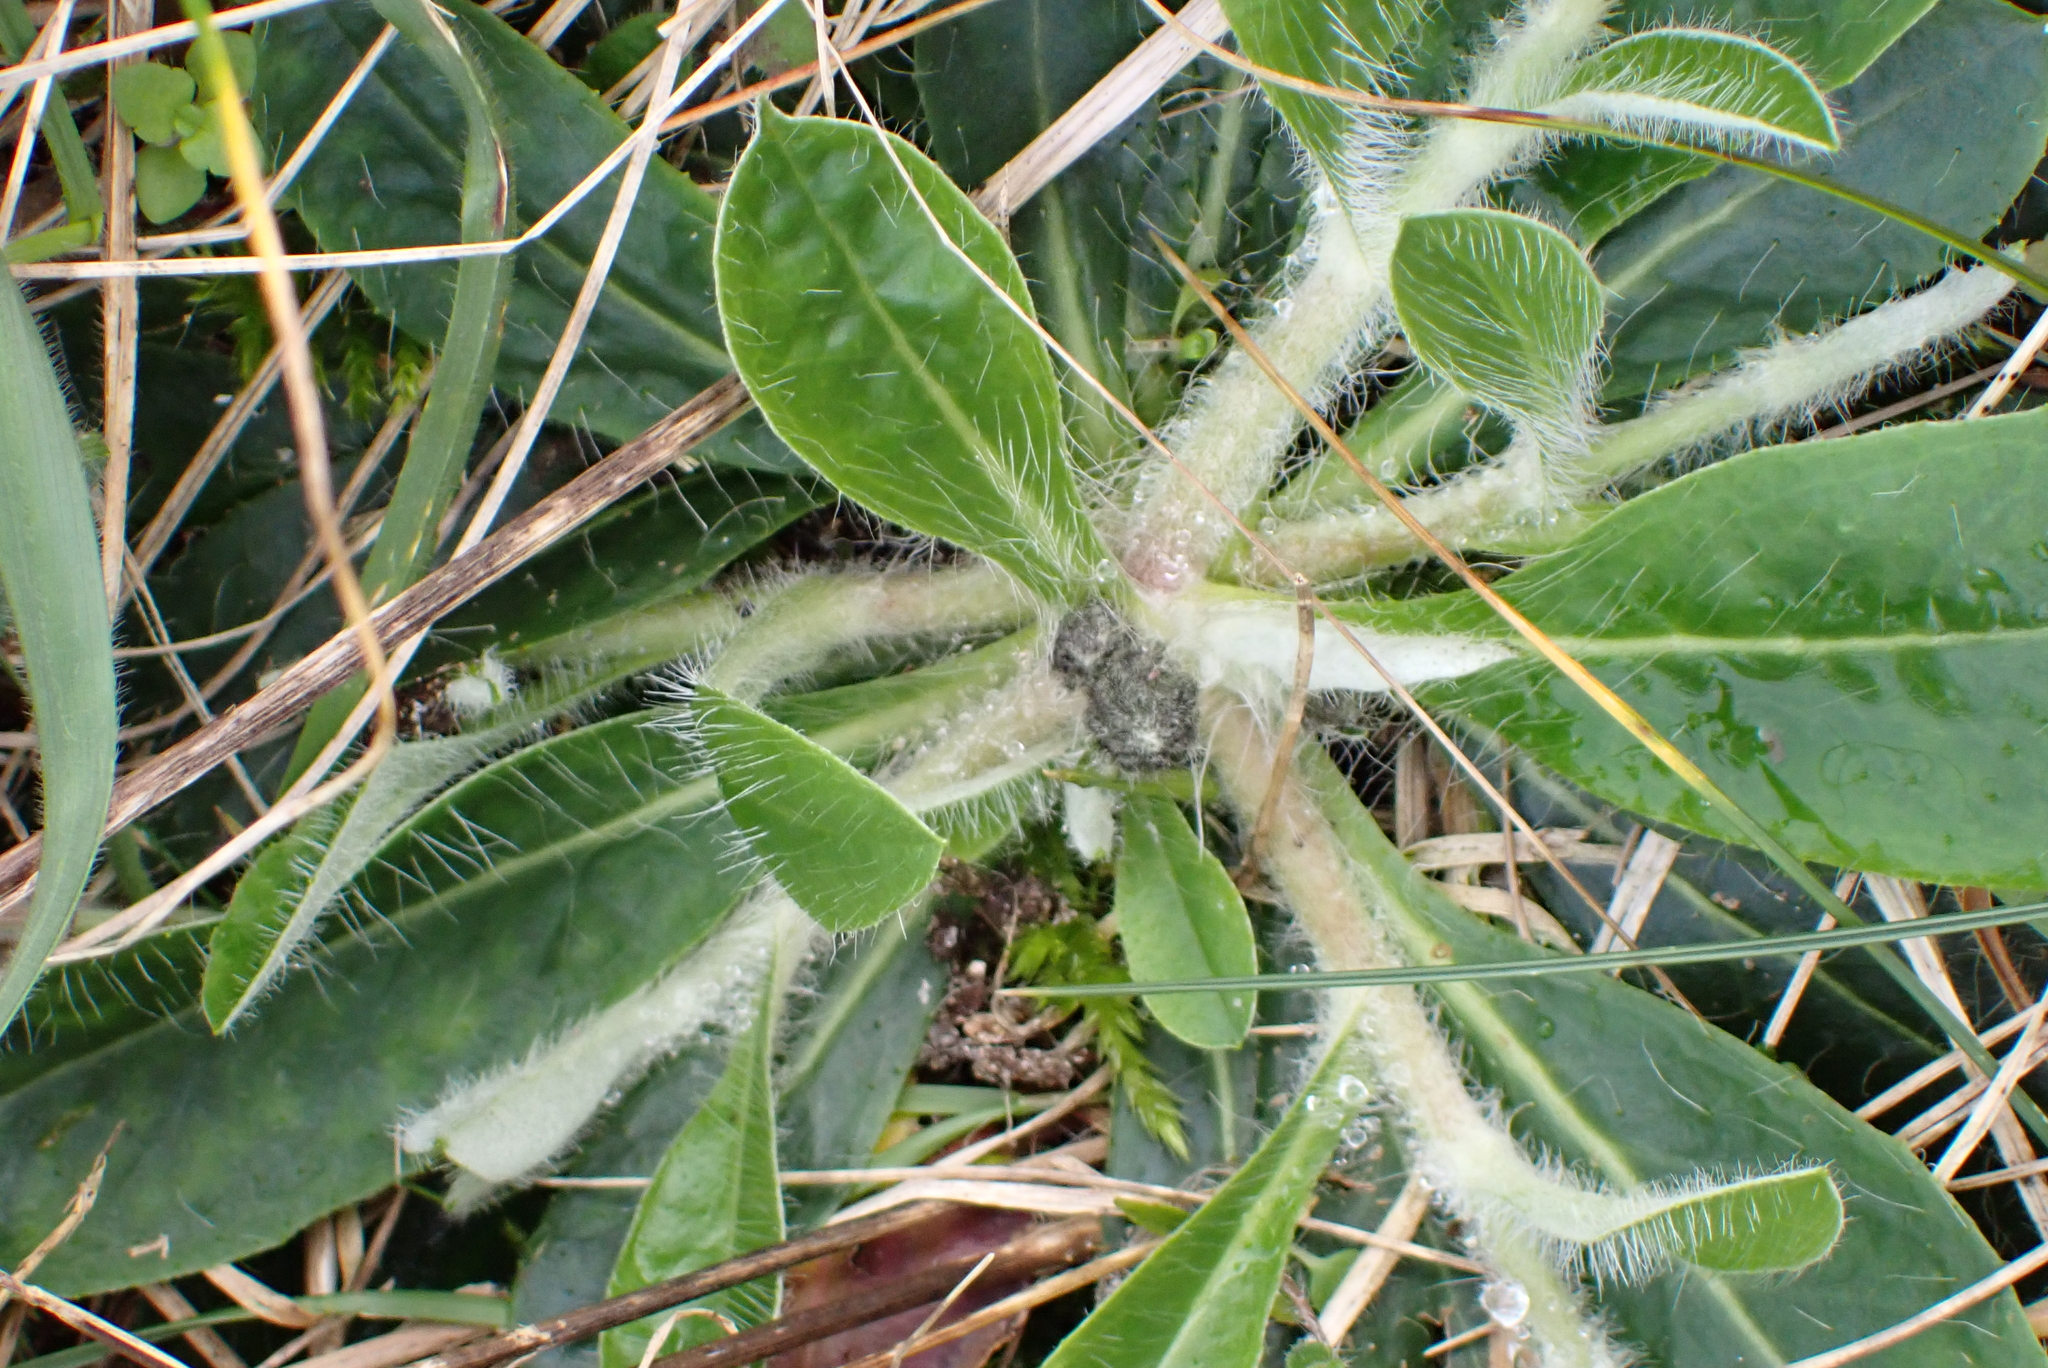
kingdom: Plantae
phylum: Tracheophyta
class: Magnoliopsida
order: Asterales
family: Asteraceae
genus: Pilosella
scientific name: Pilosella officinarum
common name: Mouse-ear hawkweed
